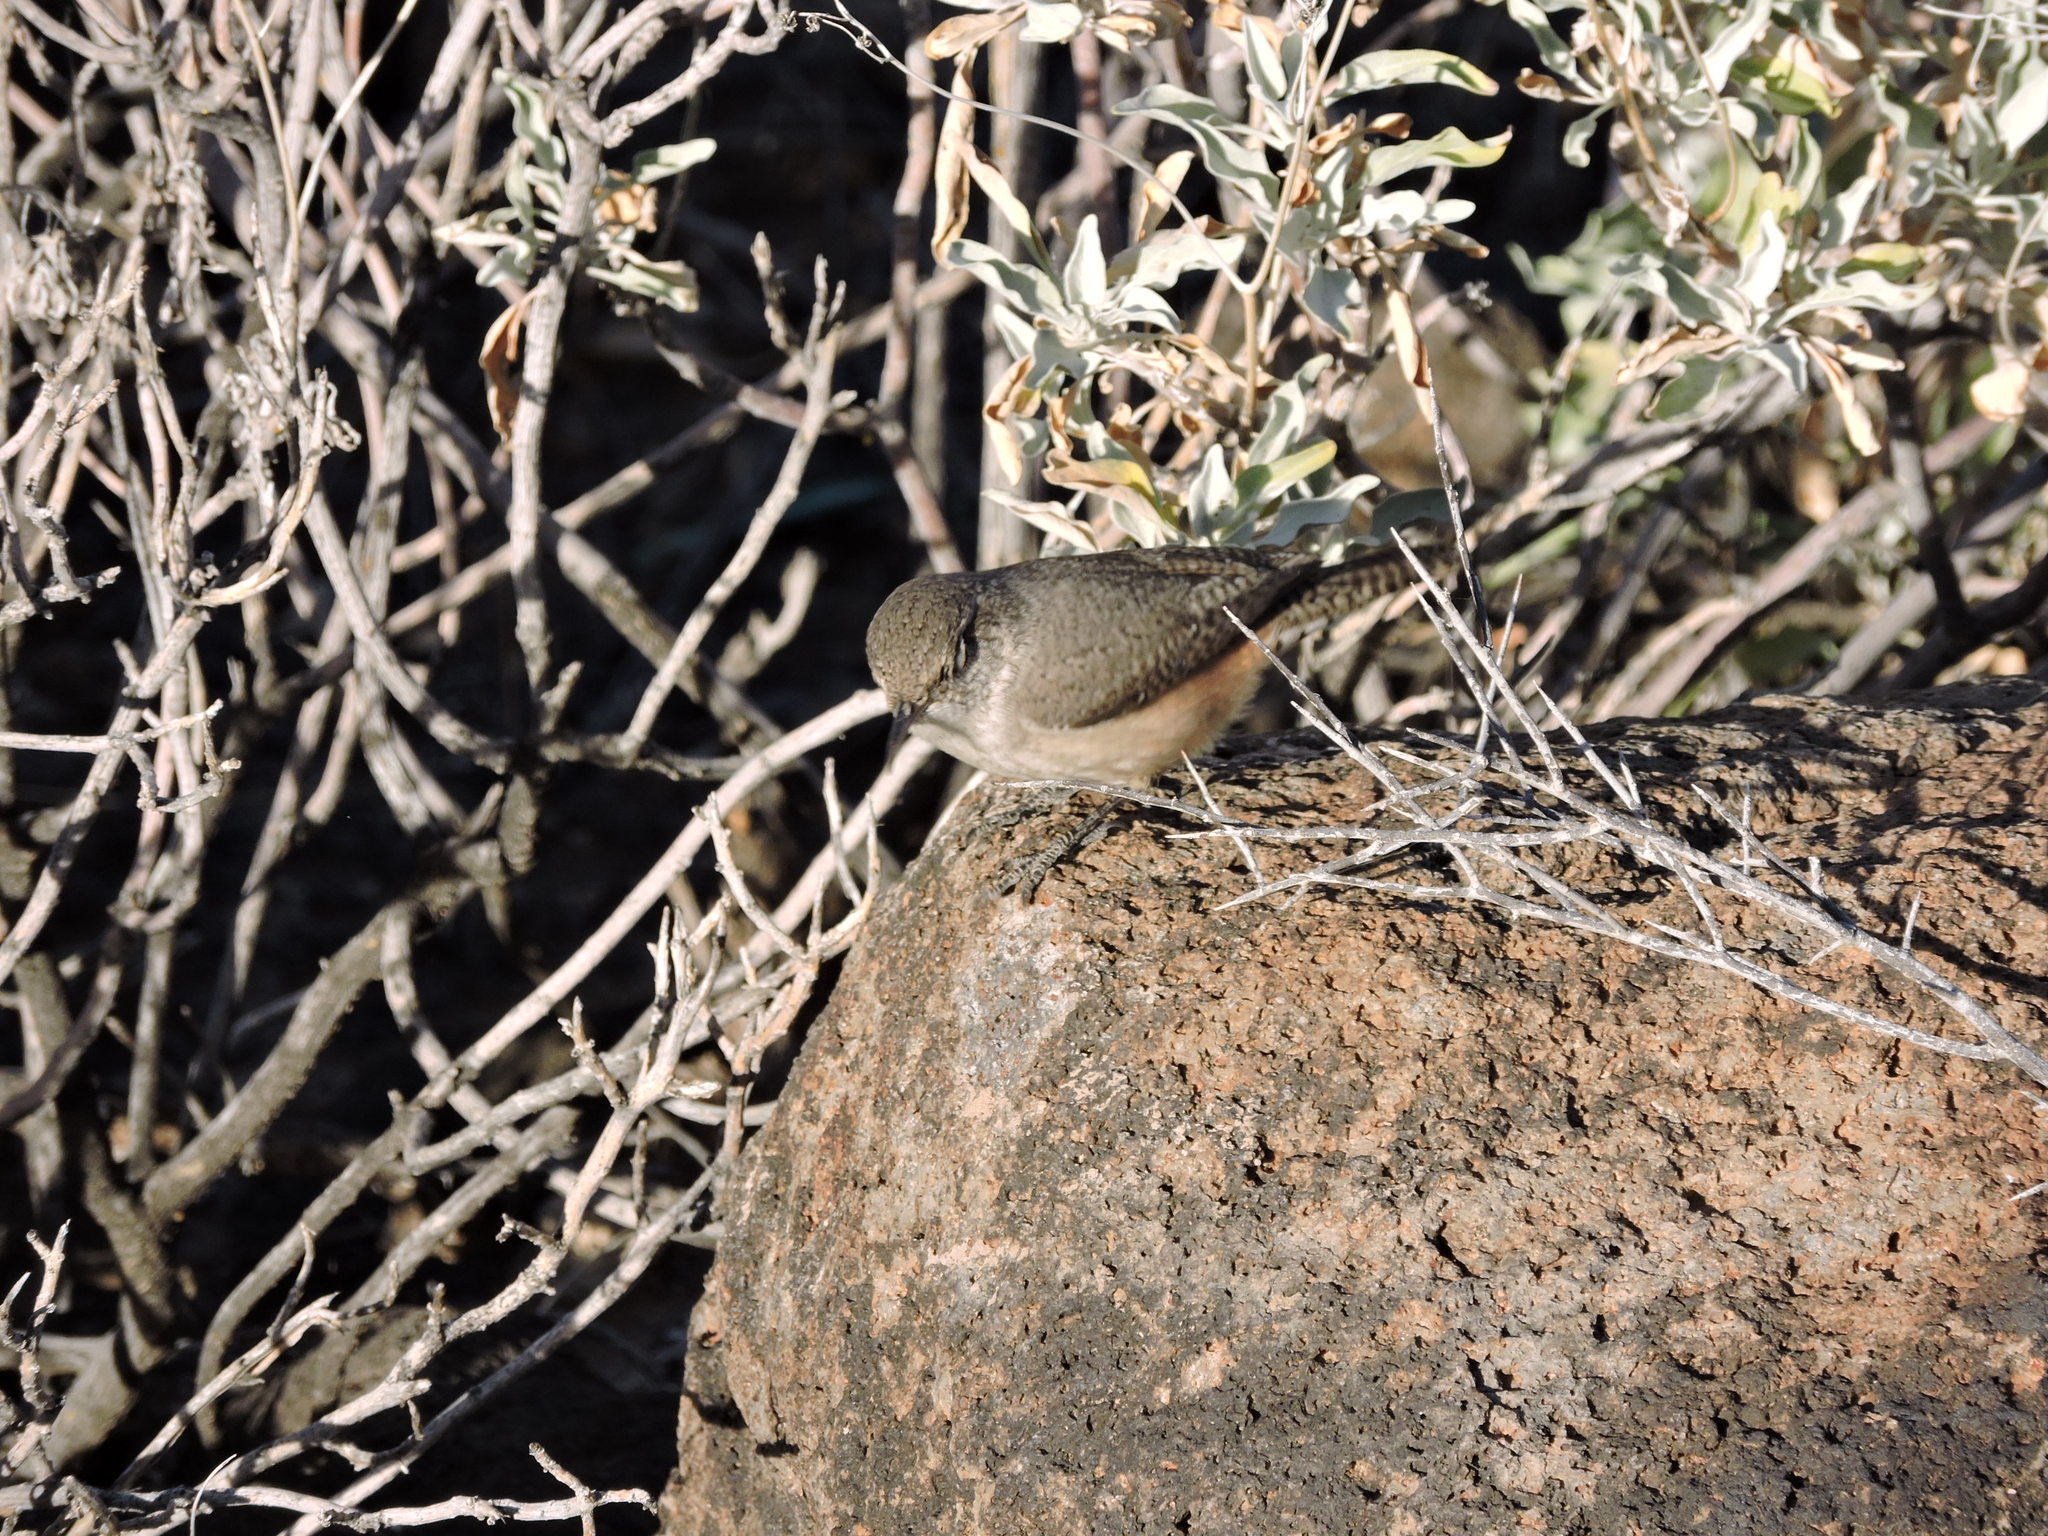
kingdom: Animalia
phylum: Chordata
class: Aves
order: Passeriformes
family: Troglodytidae
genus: Salpinctes
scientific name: Salpinctes obsoletus
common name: Rock wren
